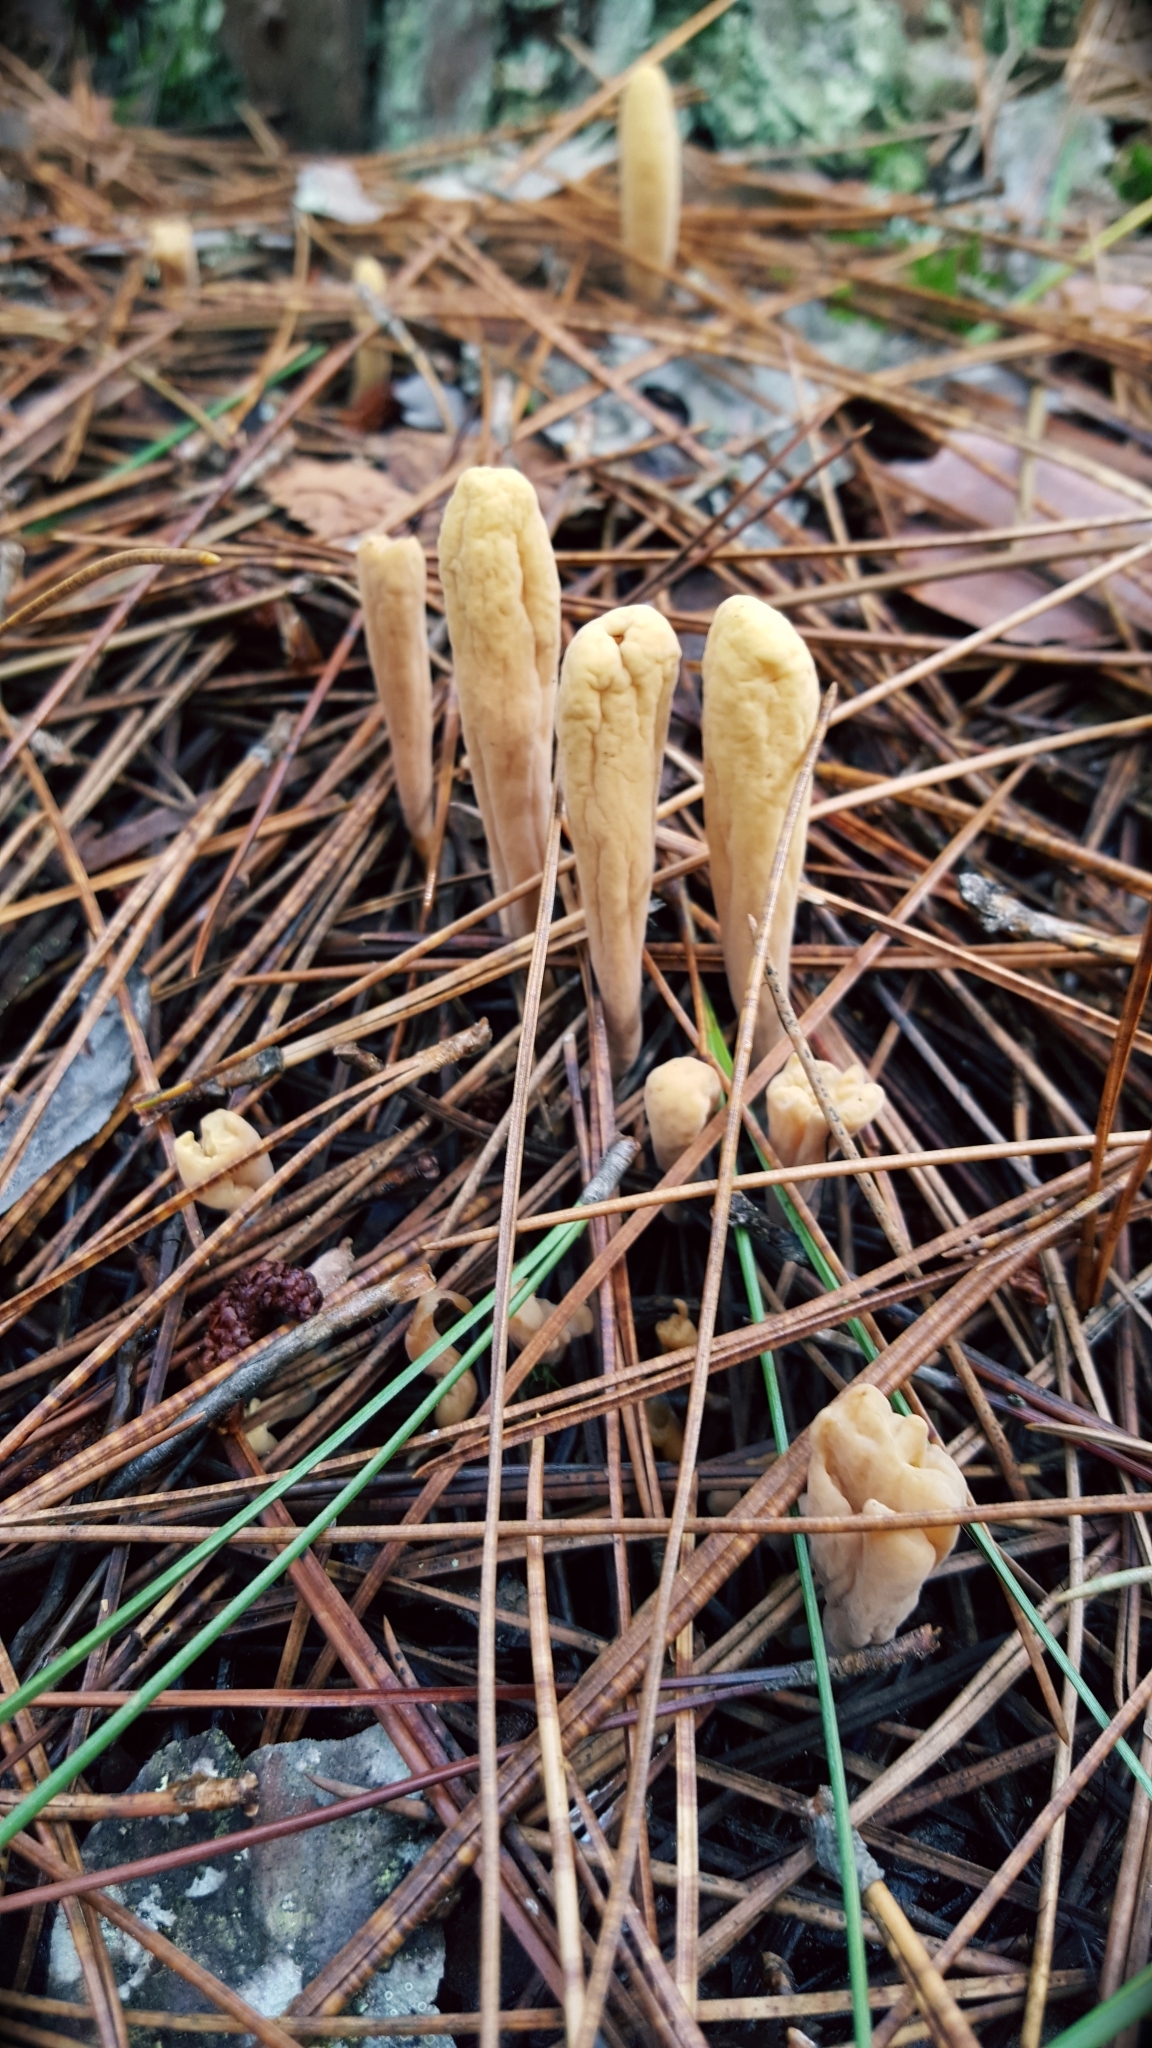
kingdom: Fungi
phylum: Basidiomycota
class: Agaricomycetes
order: Gomphales
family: Clavariadelphaceae
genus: Clavariadelphus
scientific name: Clavariadelphus americanus
